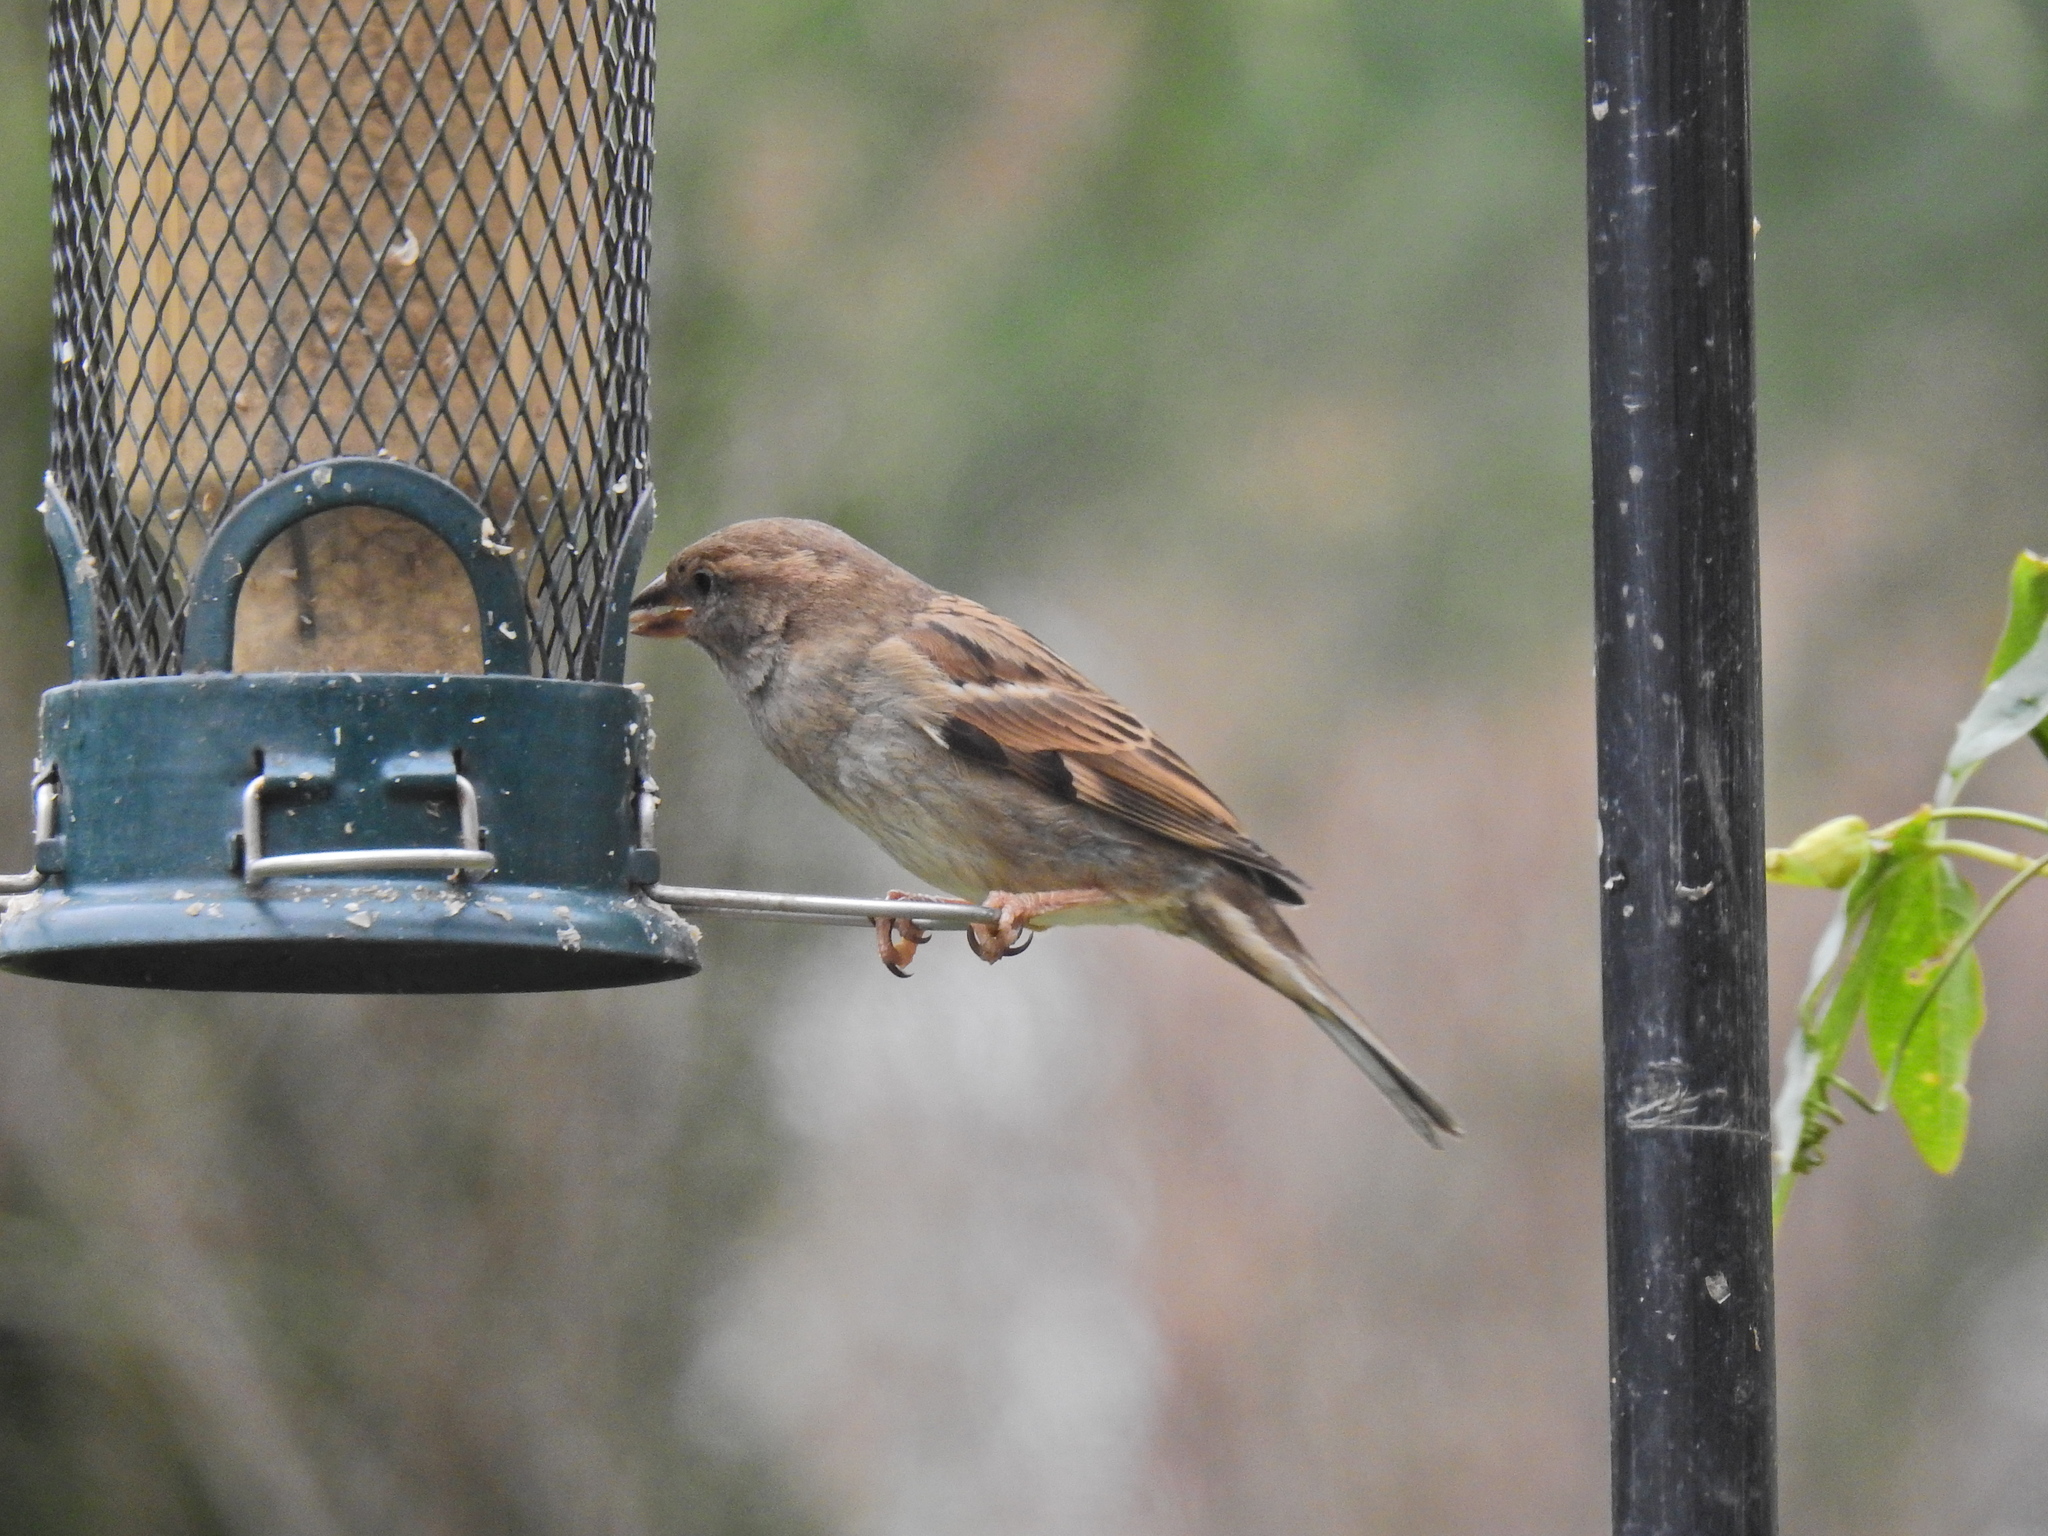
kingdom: Animalia
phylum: Chordata
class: Aves
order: Passeriformes
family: Passeridae
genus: Passer
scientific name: Passer domesticus
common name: House sparrow
